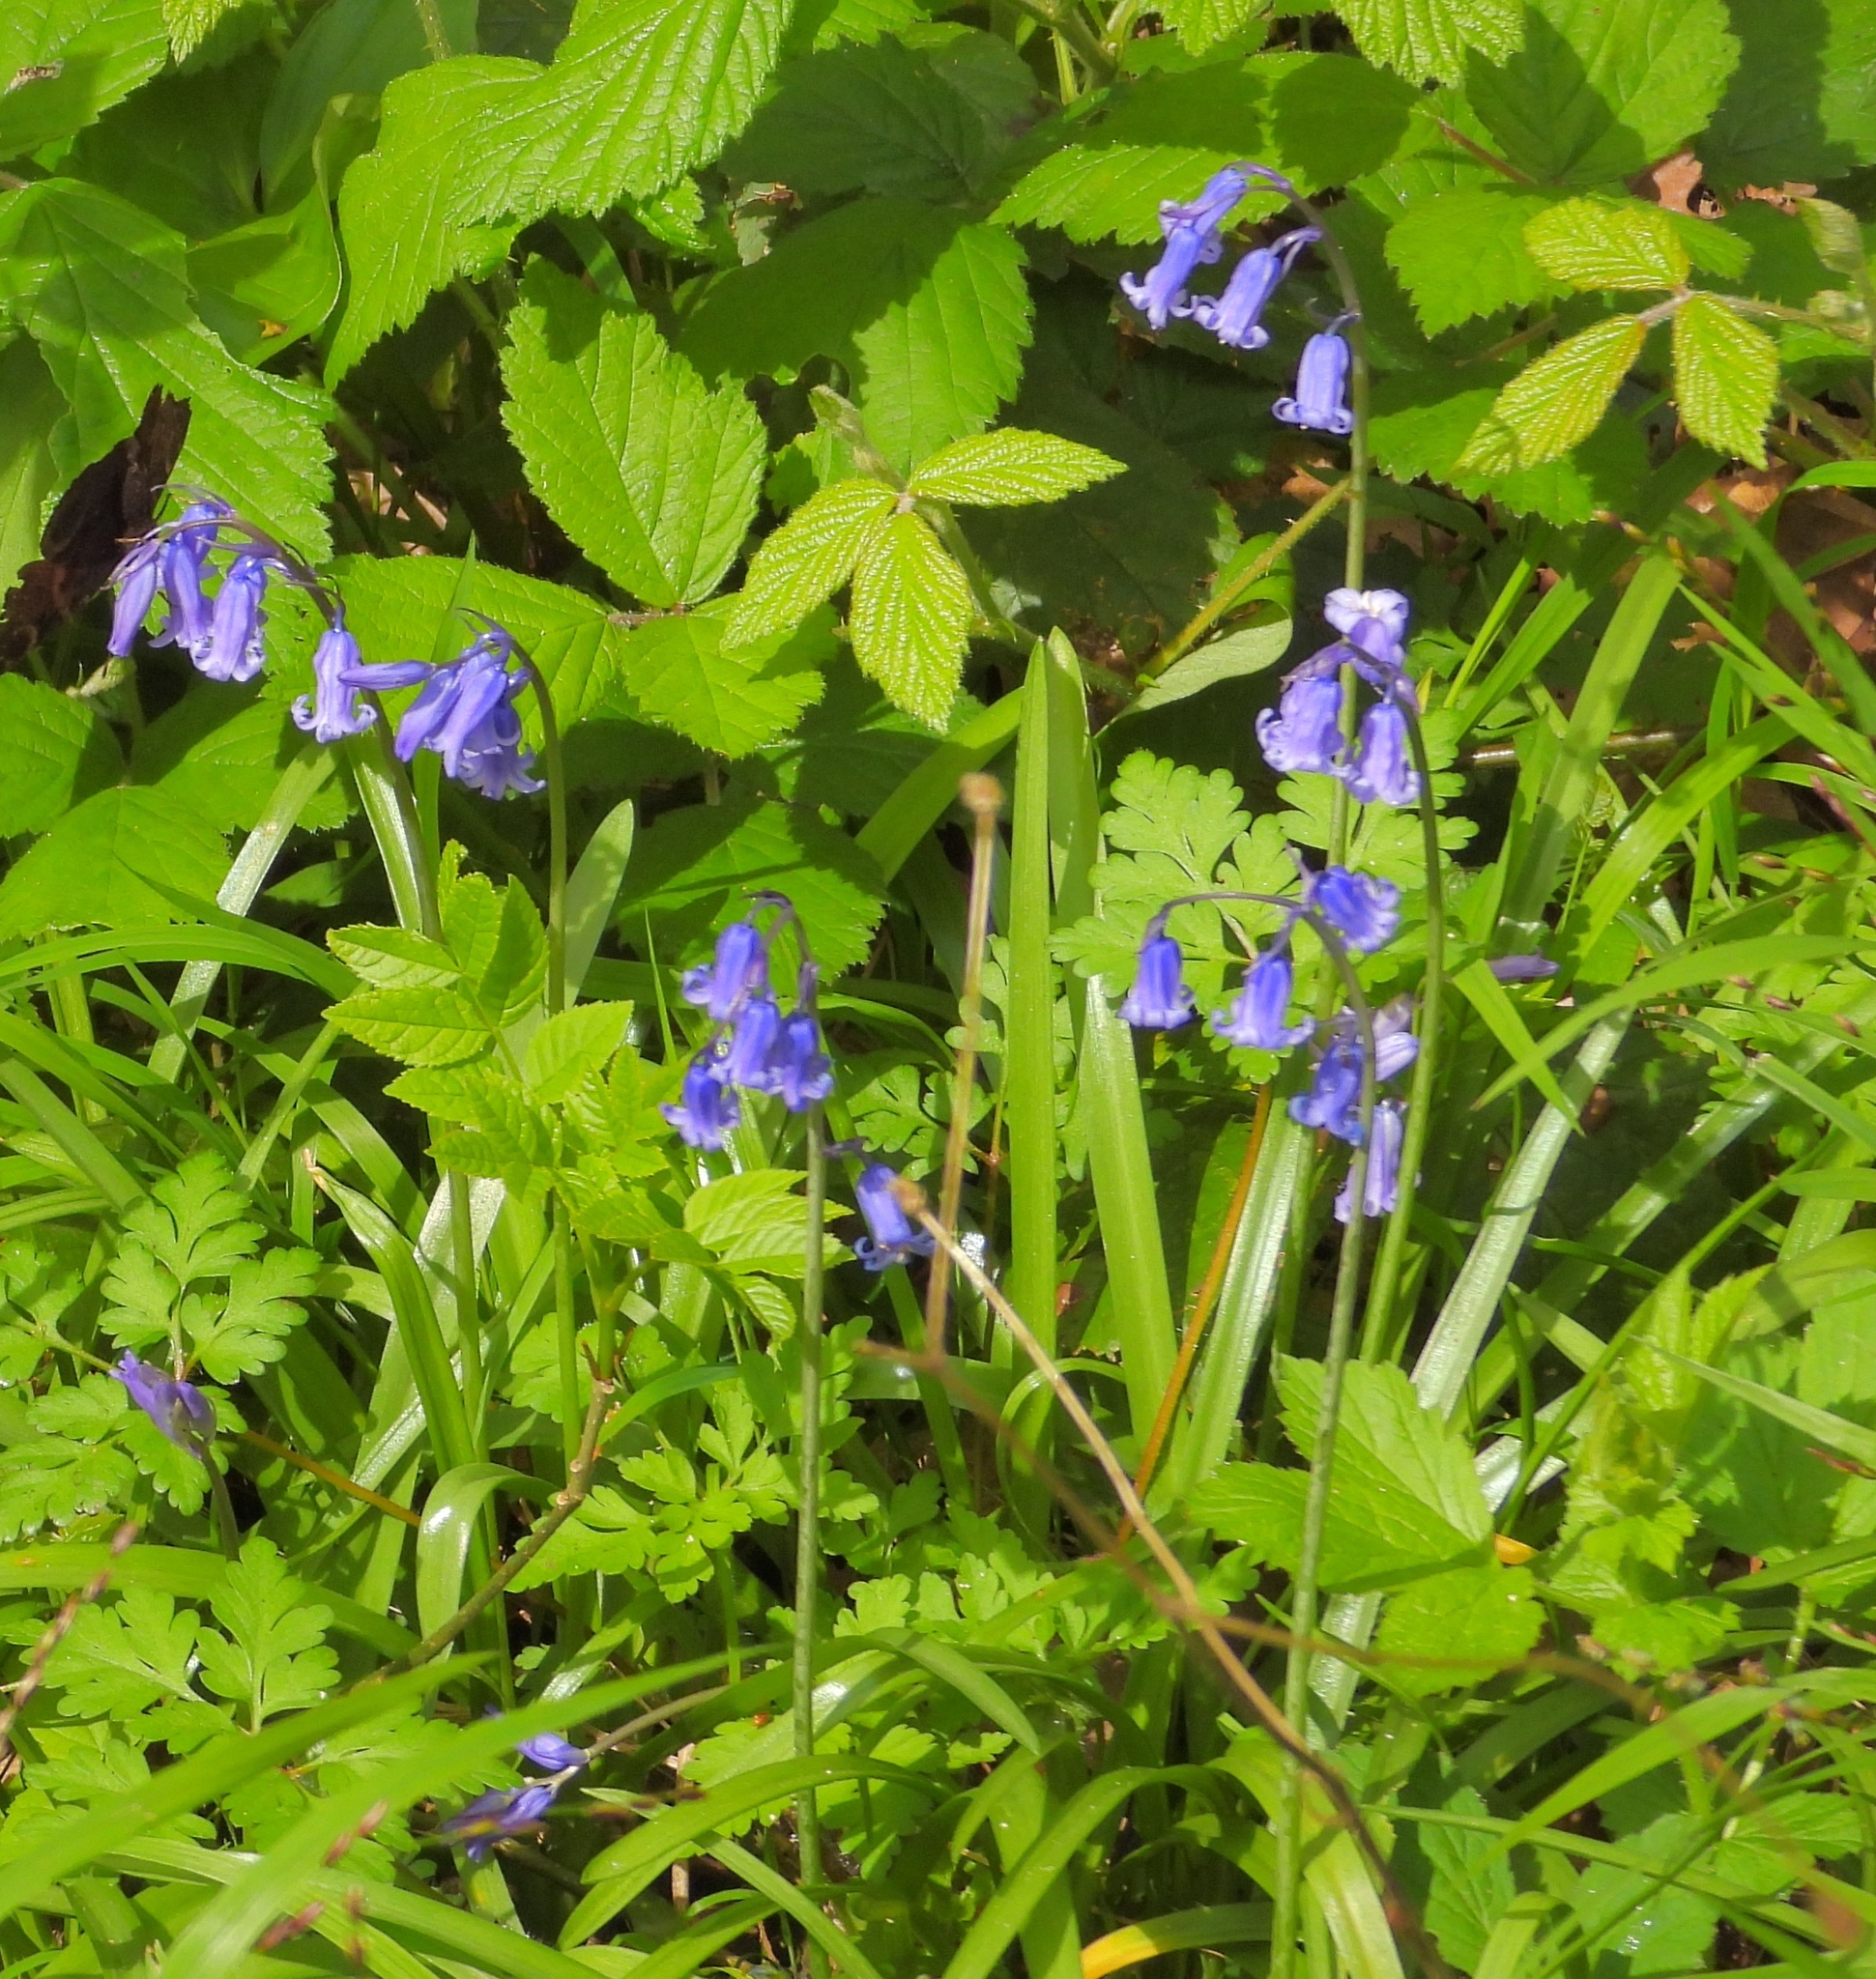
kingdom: Plantae
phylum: Tracheophyta
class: Liliopsida
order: Asparagales
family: Asparagaceae
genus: Hyacinthoides
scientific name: Hyacinthoides non-scripta
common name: Bluebell
